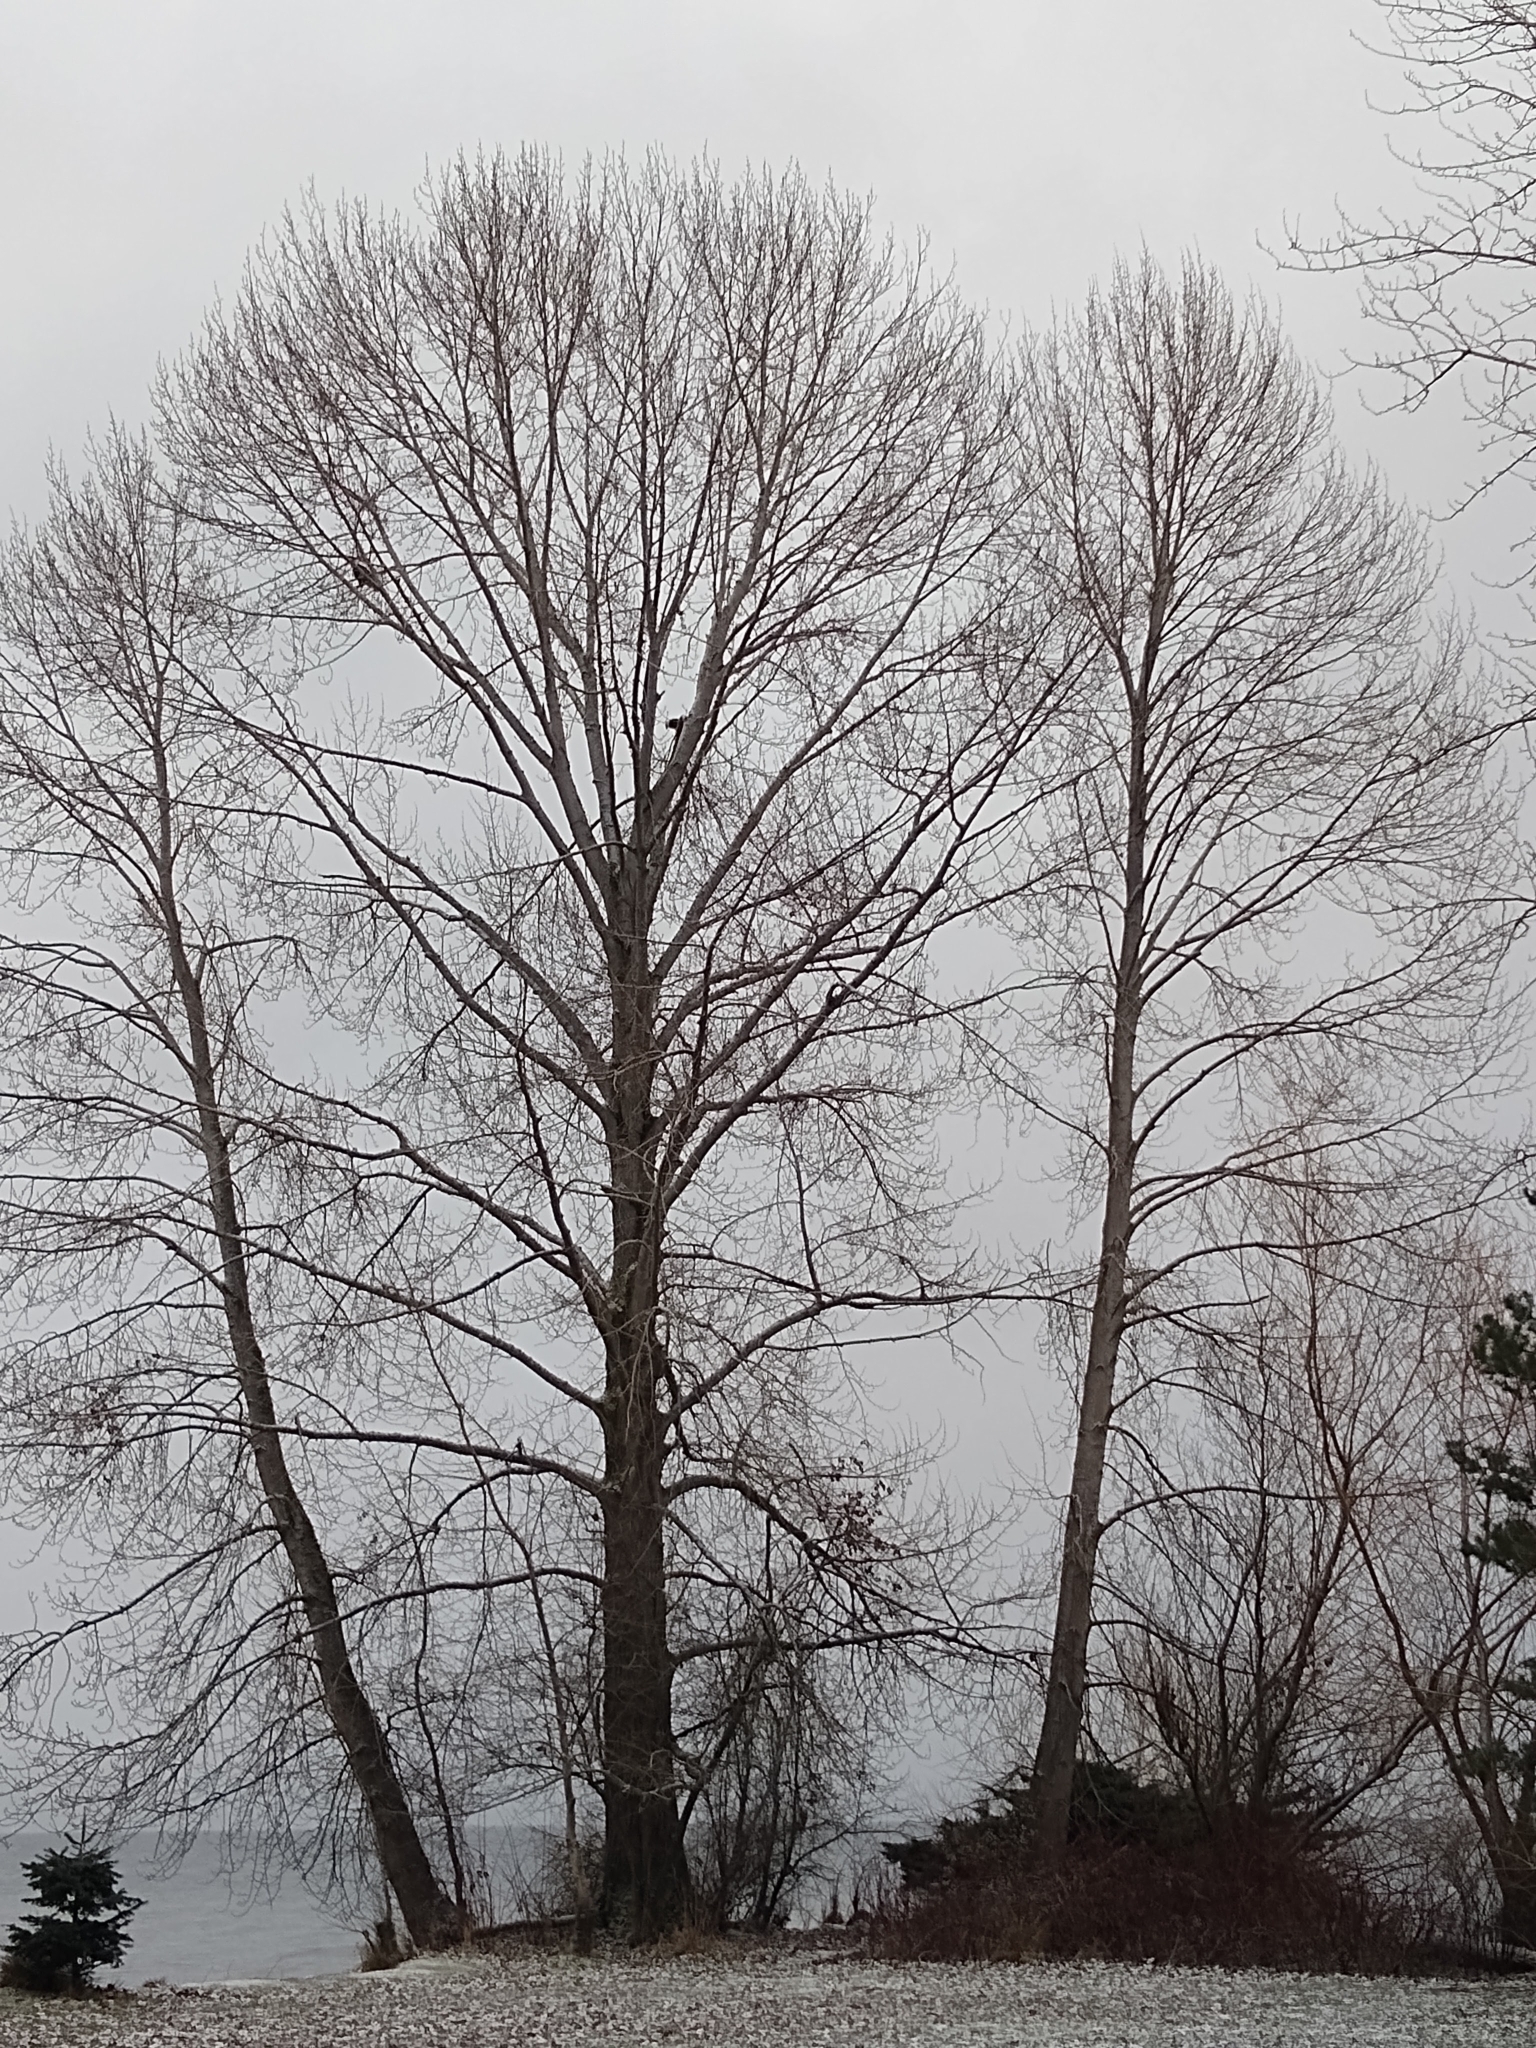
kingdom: Animalia
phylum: Chordata
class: Aves
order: Accipitriformes
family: Accipitridae
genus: Haliaeetus
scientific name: Haliaeetus leucocephalus
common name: Bald eagle
